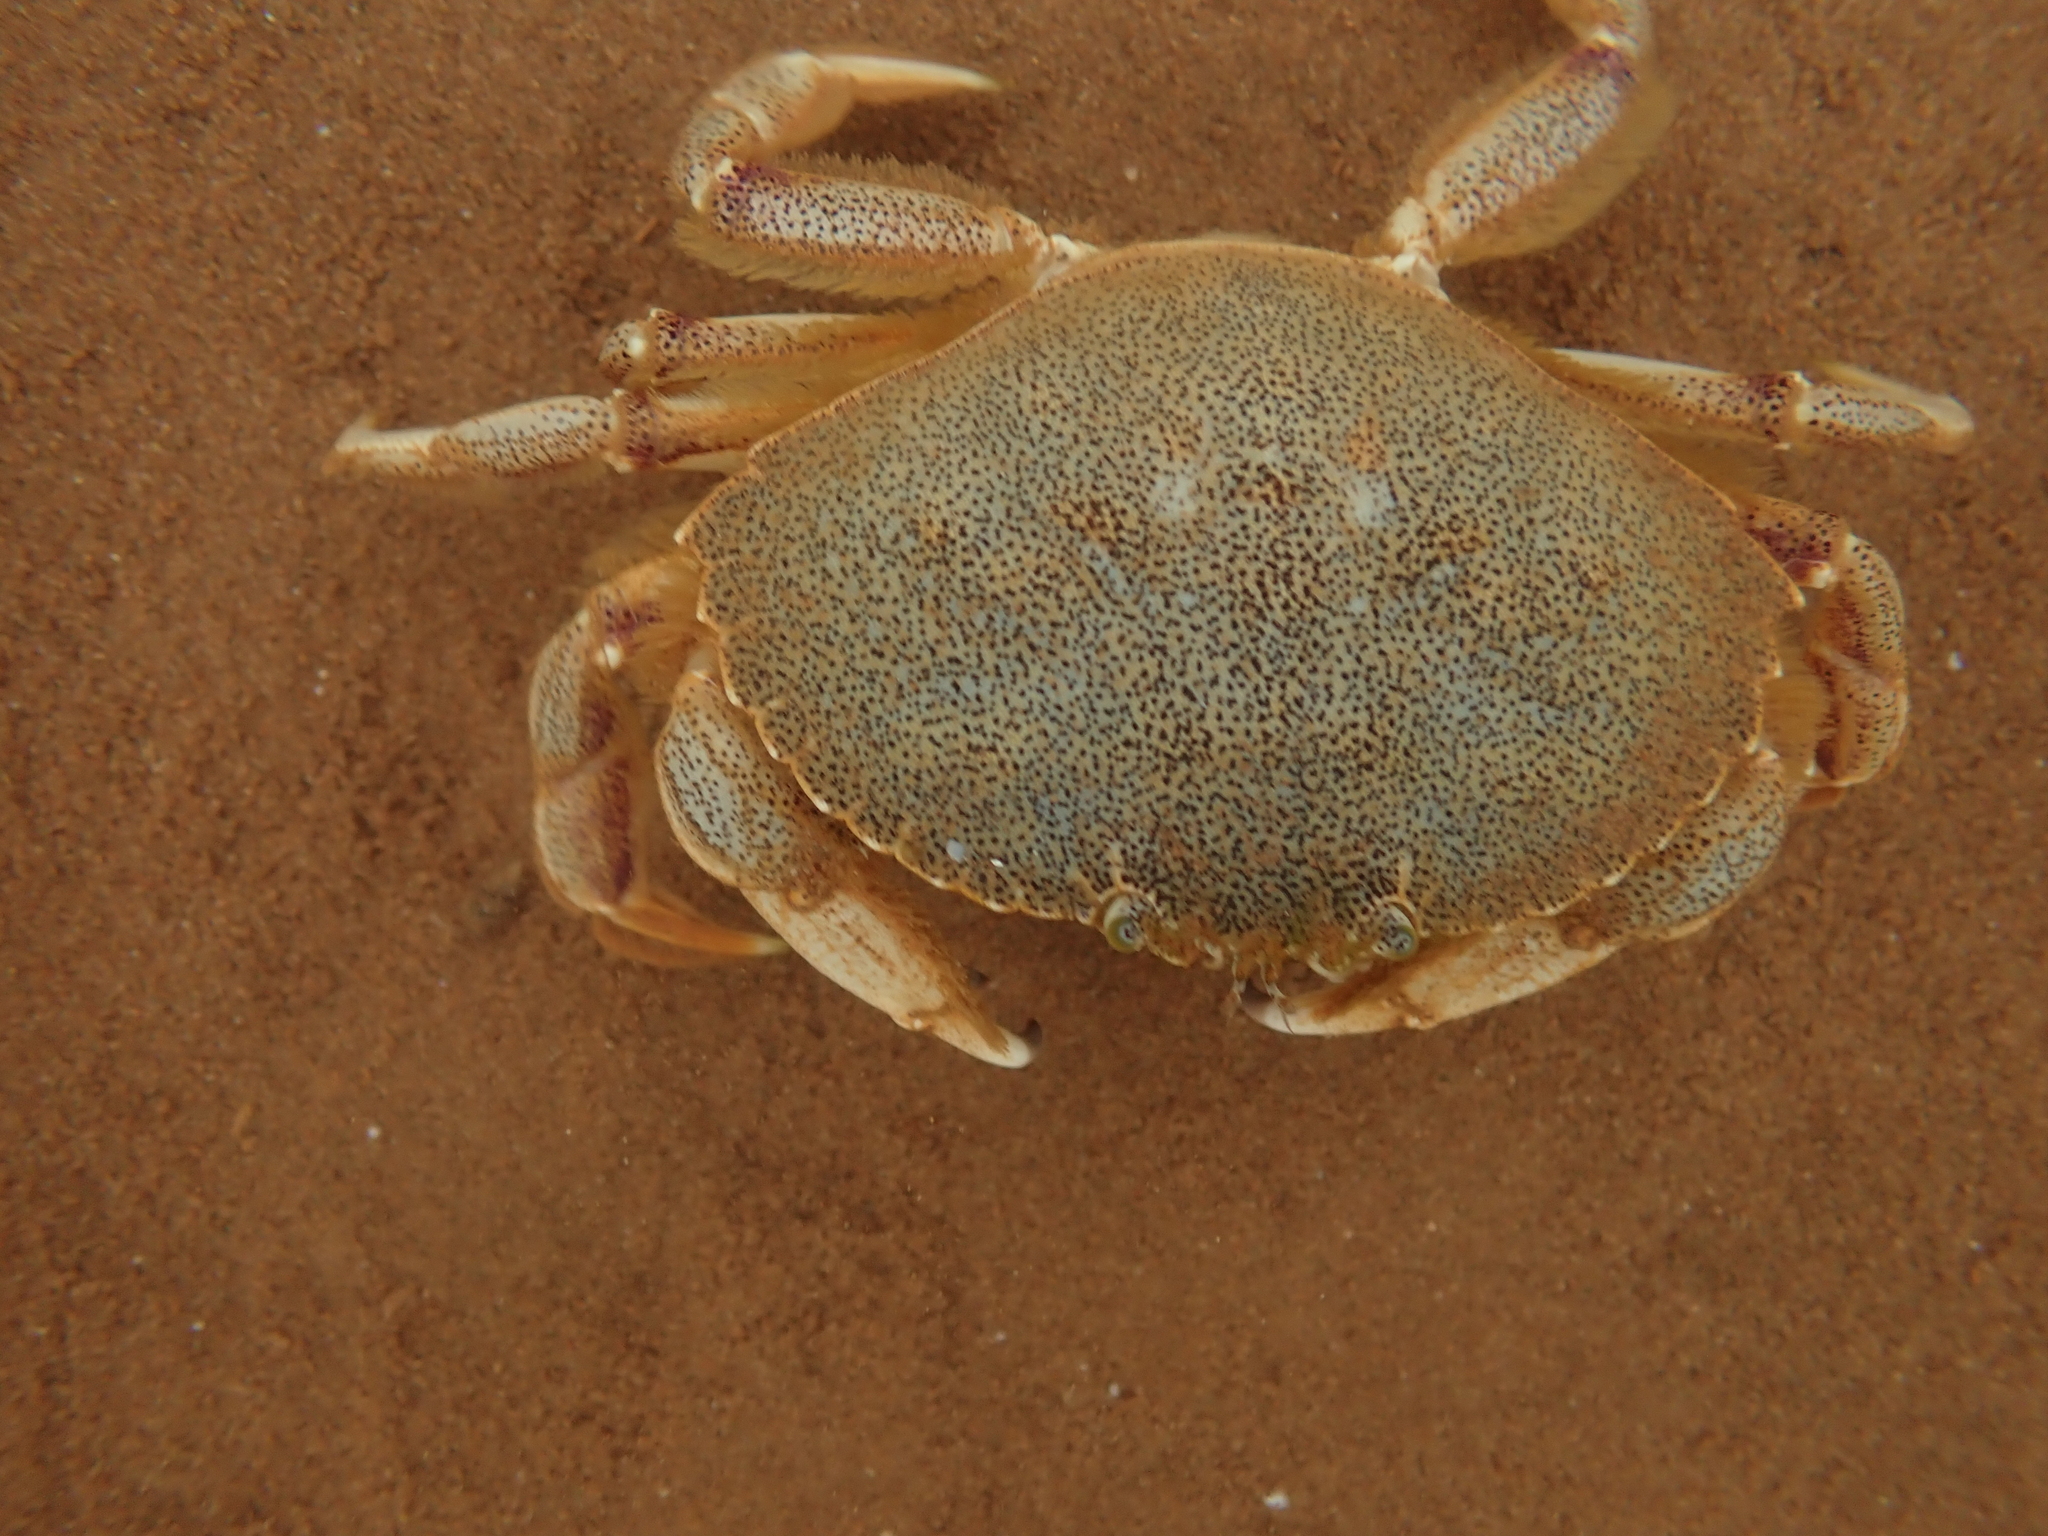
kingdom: Animalia
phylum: Arthropoda
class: Malacostraca
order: Decapoda
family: Cancridae
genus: Cancer
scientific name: Cancer irroratus
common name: Atlantic rock crab
